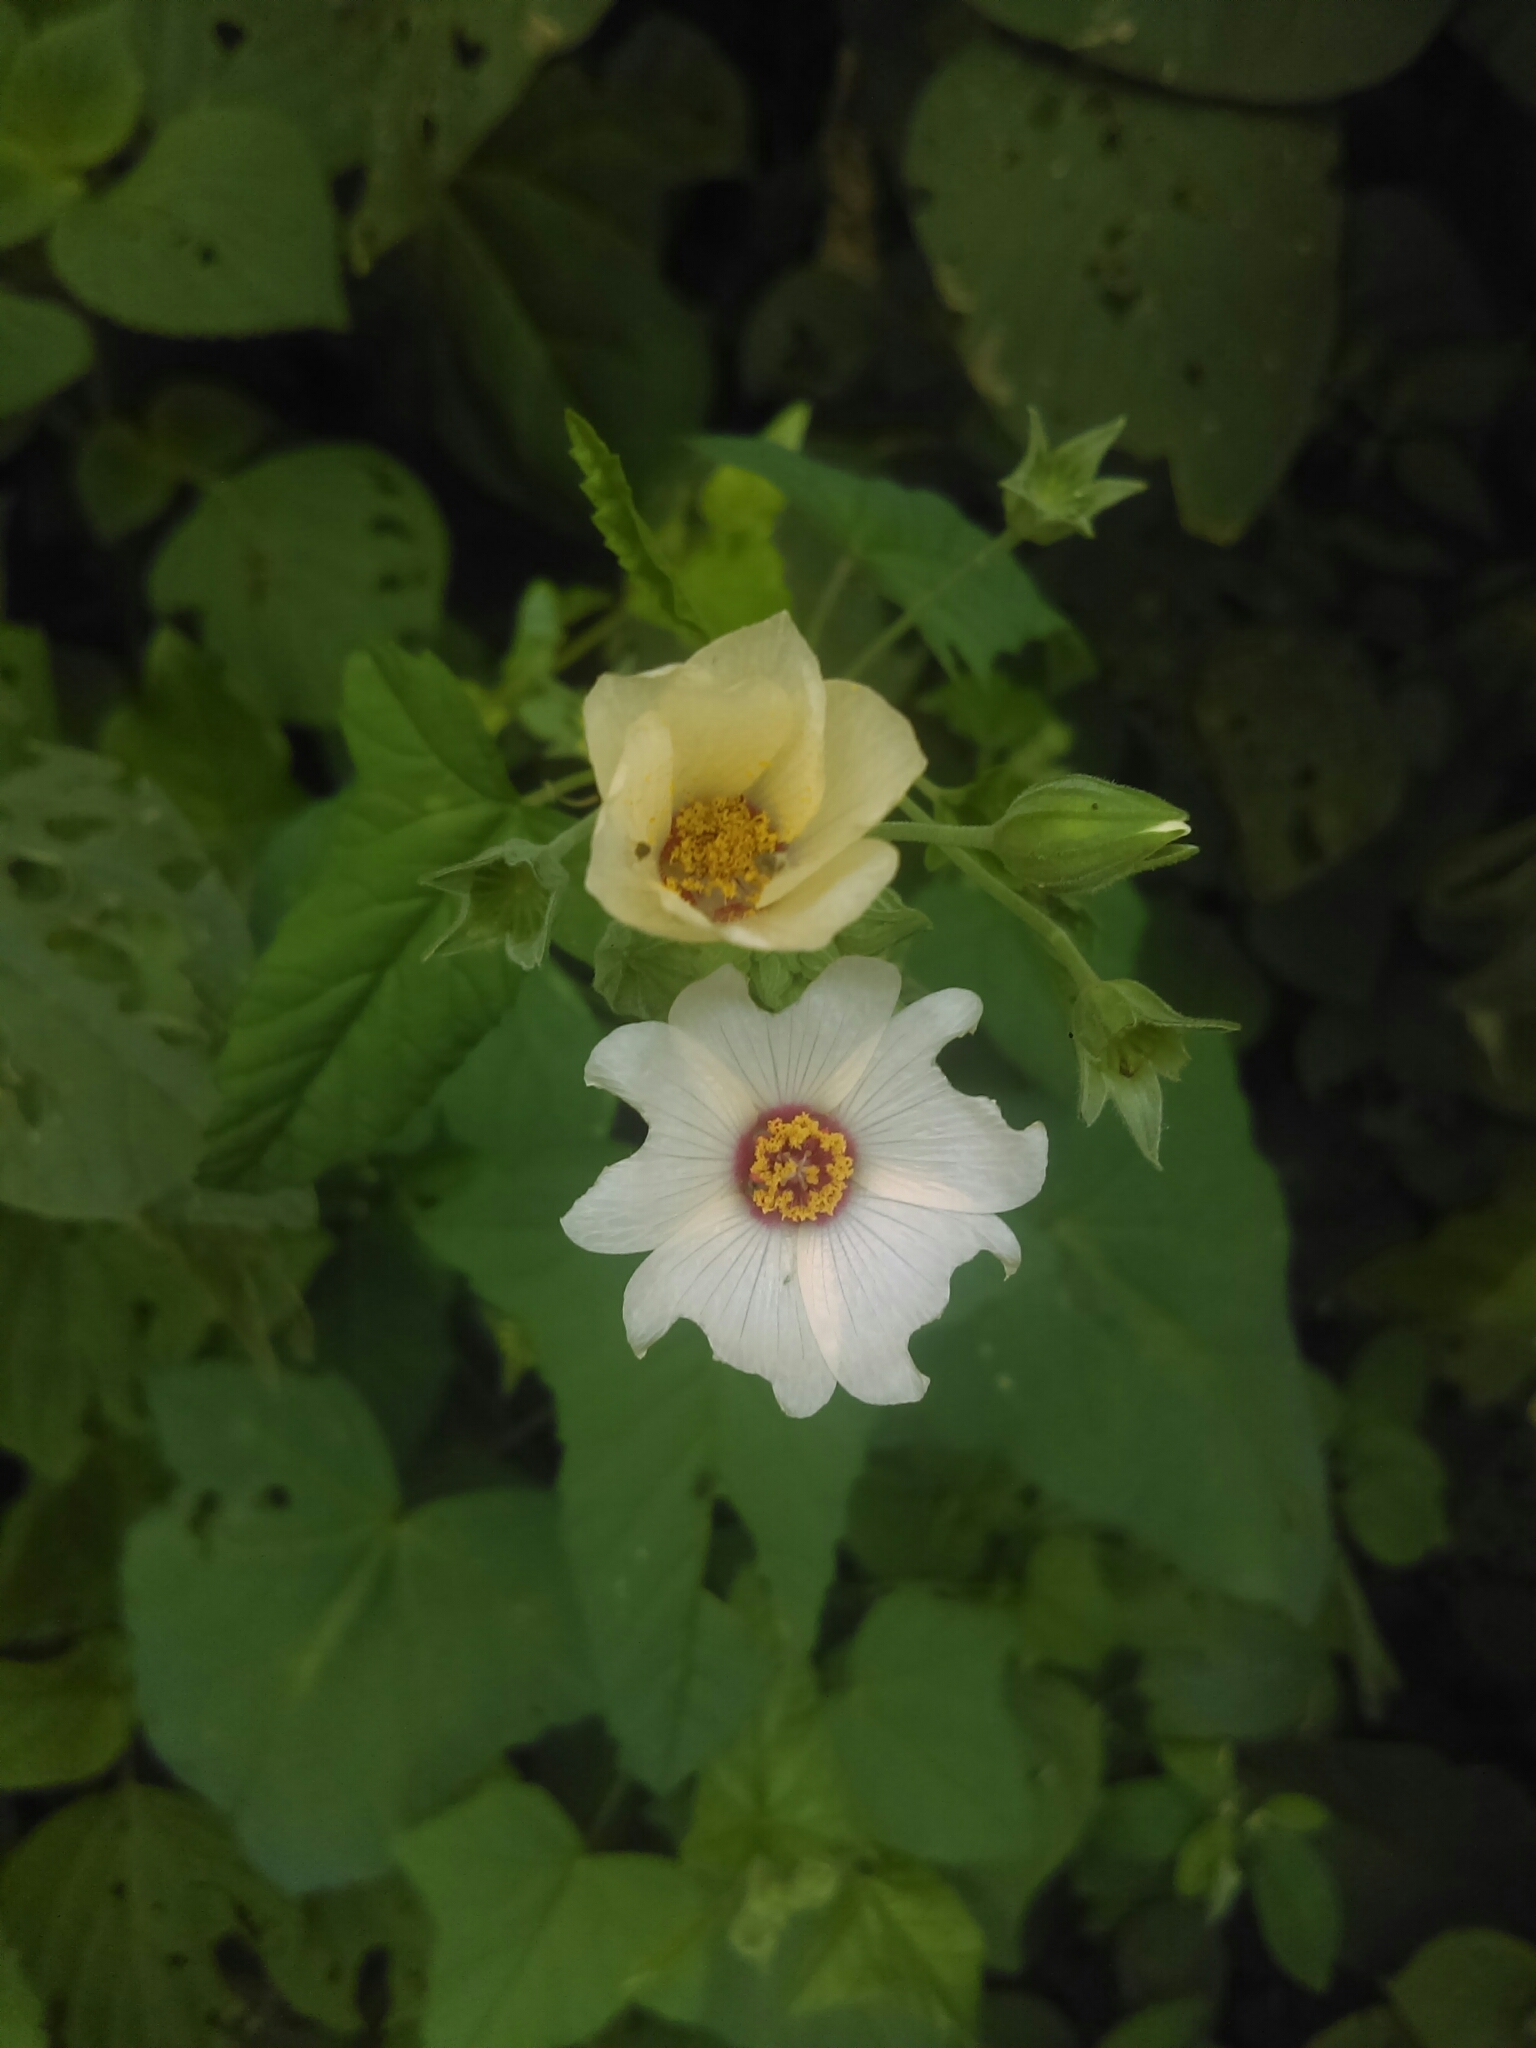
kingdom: Plantae
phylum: Tracheophyta
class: Magnoliopsida
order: Malvales
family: Malvaceae
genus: Anoda
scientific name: Anoda maculata
